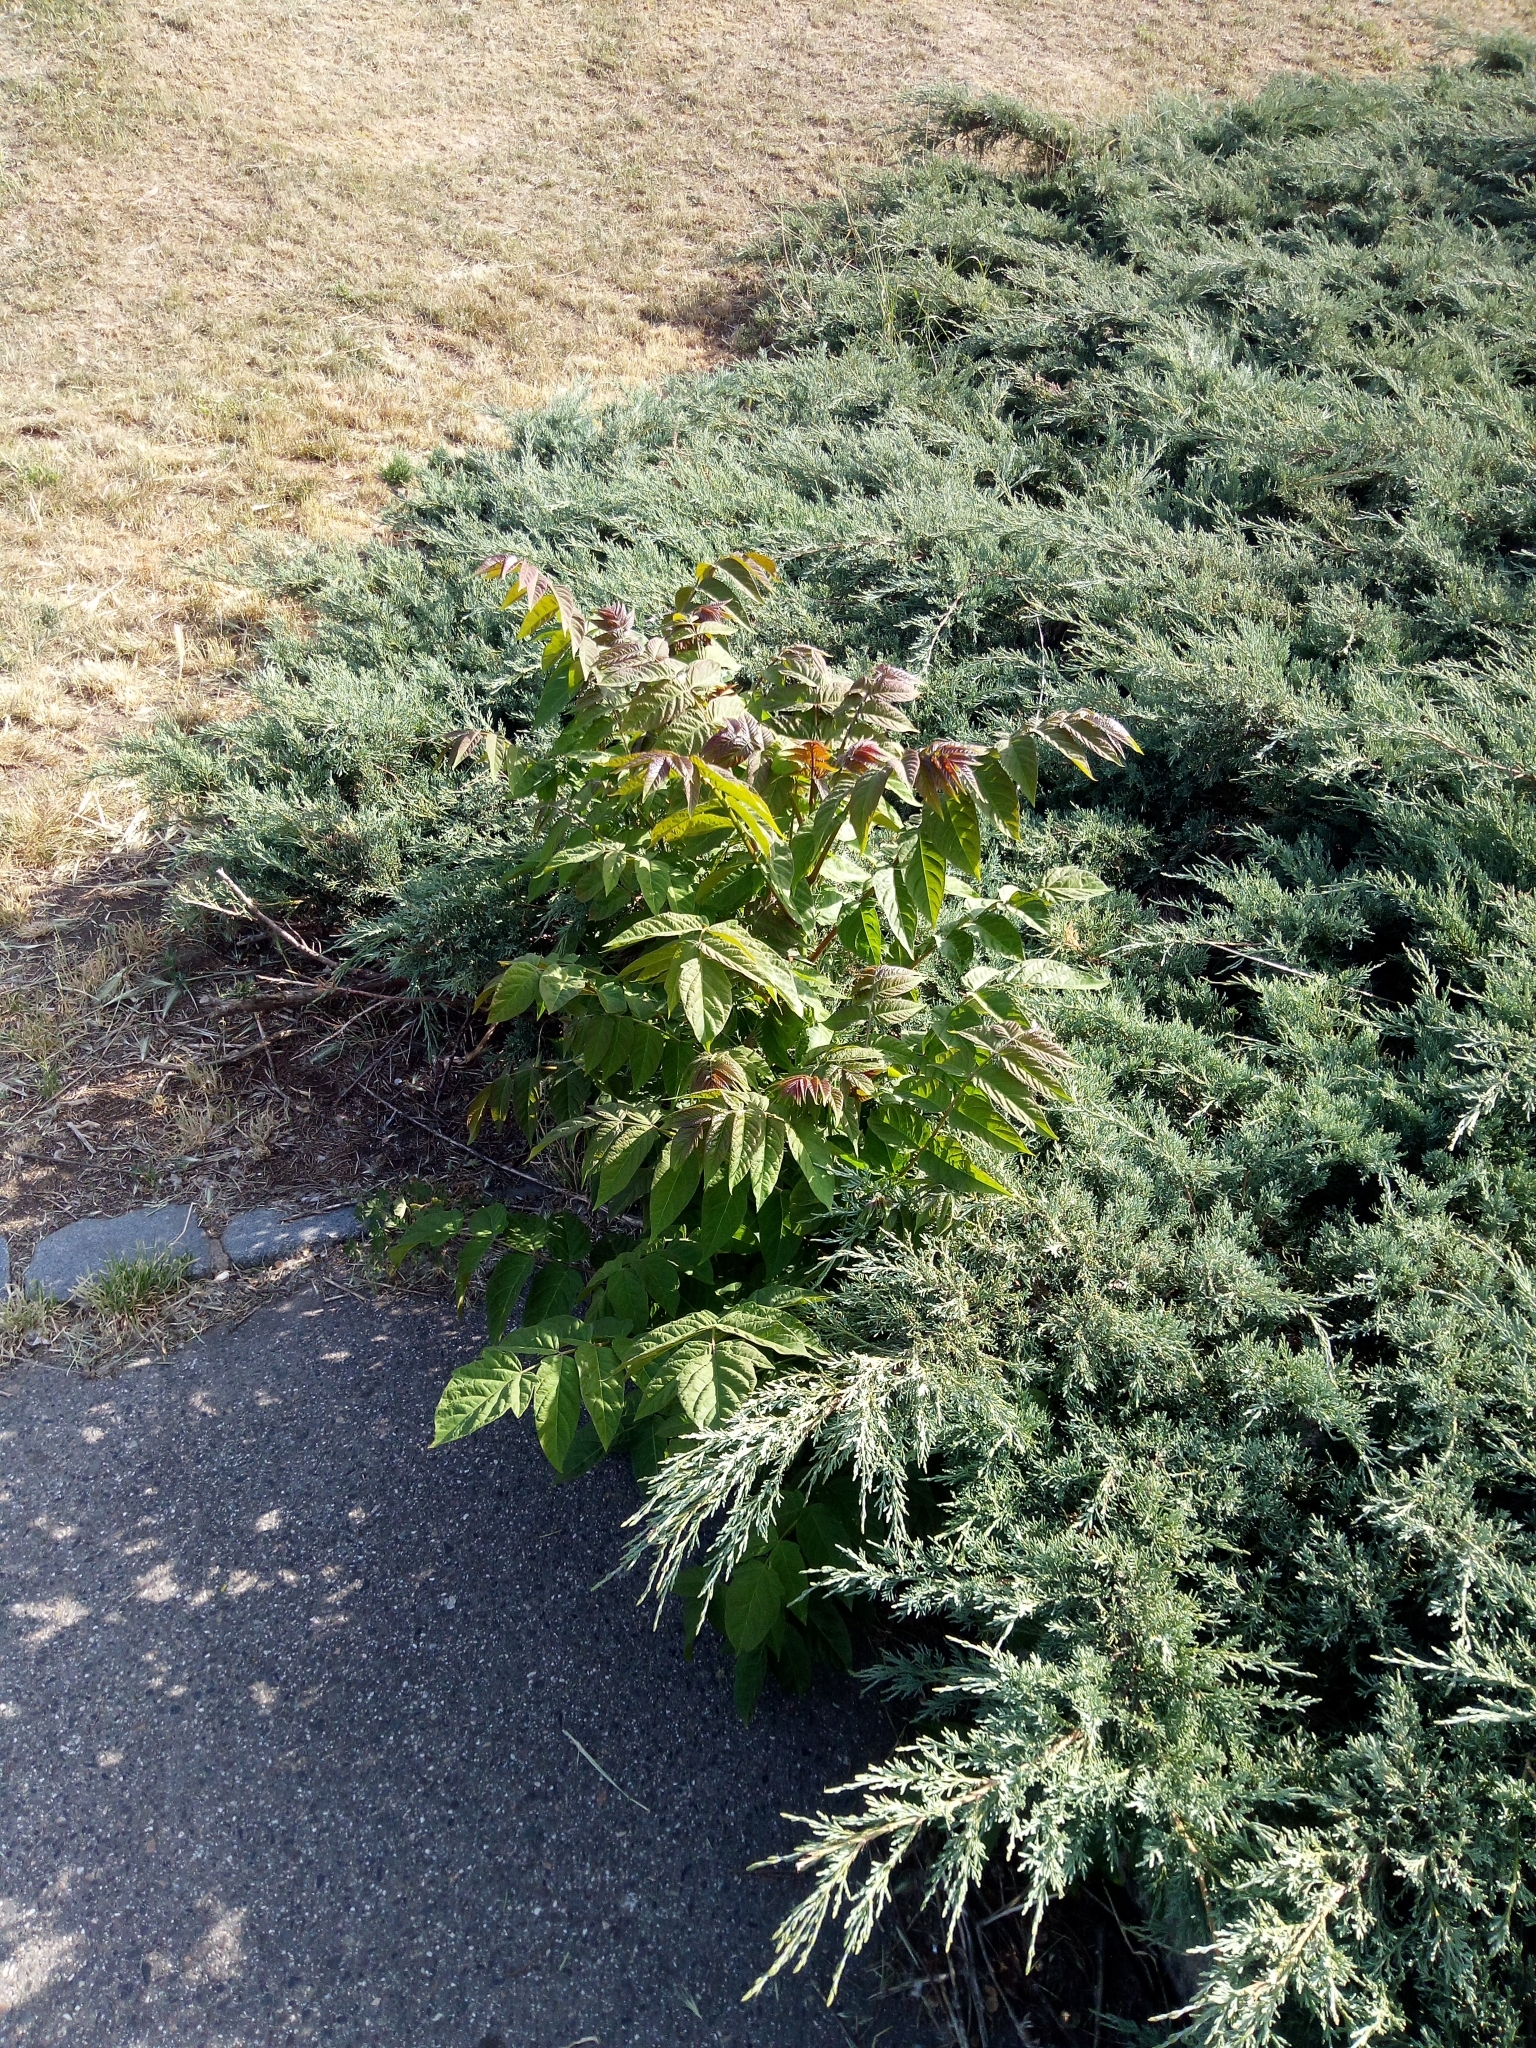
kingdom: Plantae
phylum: Tracheophyta
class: Magnoliopsida
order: Sapindales
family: Simaroubaceae
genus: Ailanthus
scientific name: Ailanthus altissima
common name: Tree-of-heaven
